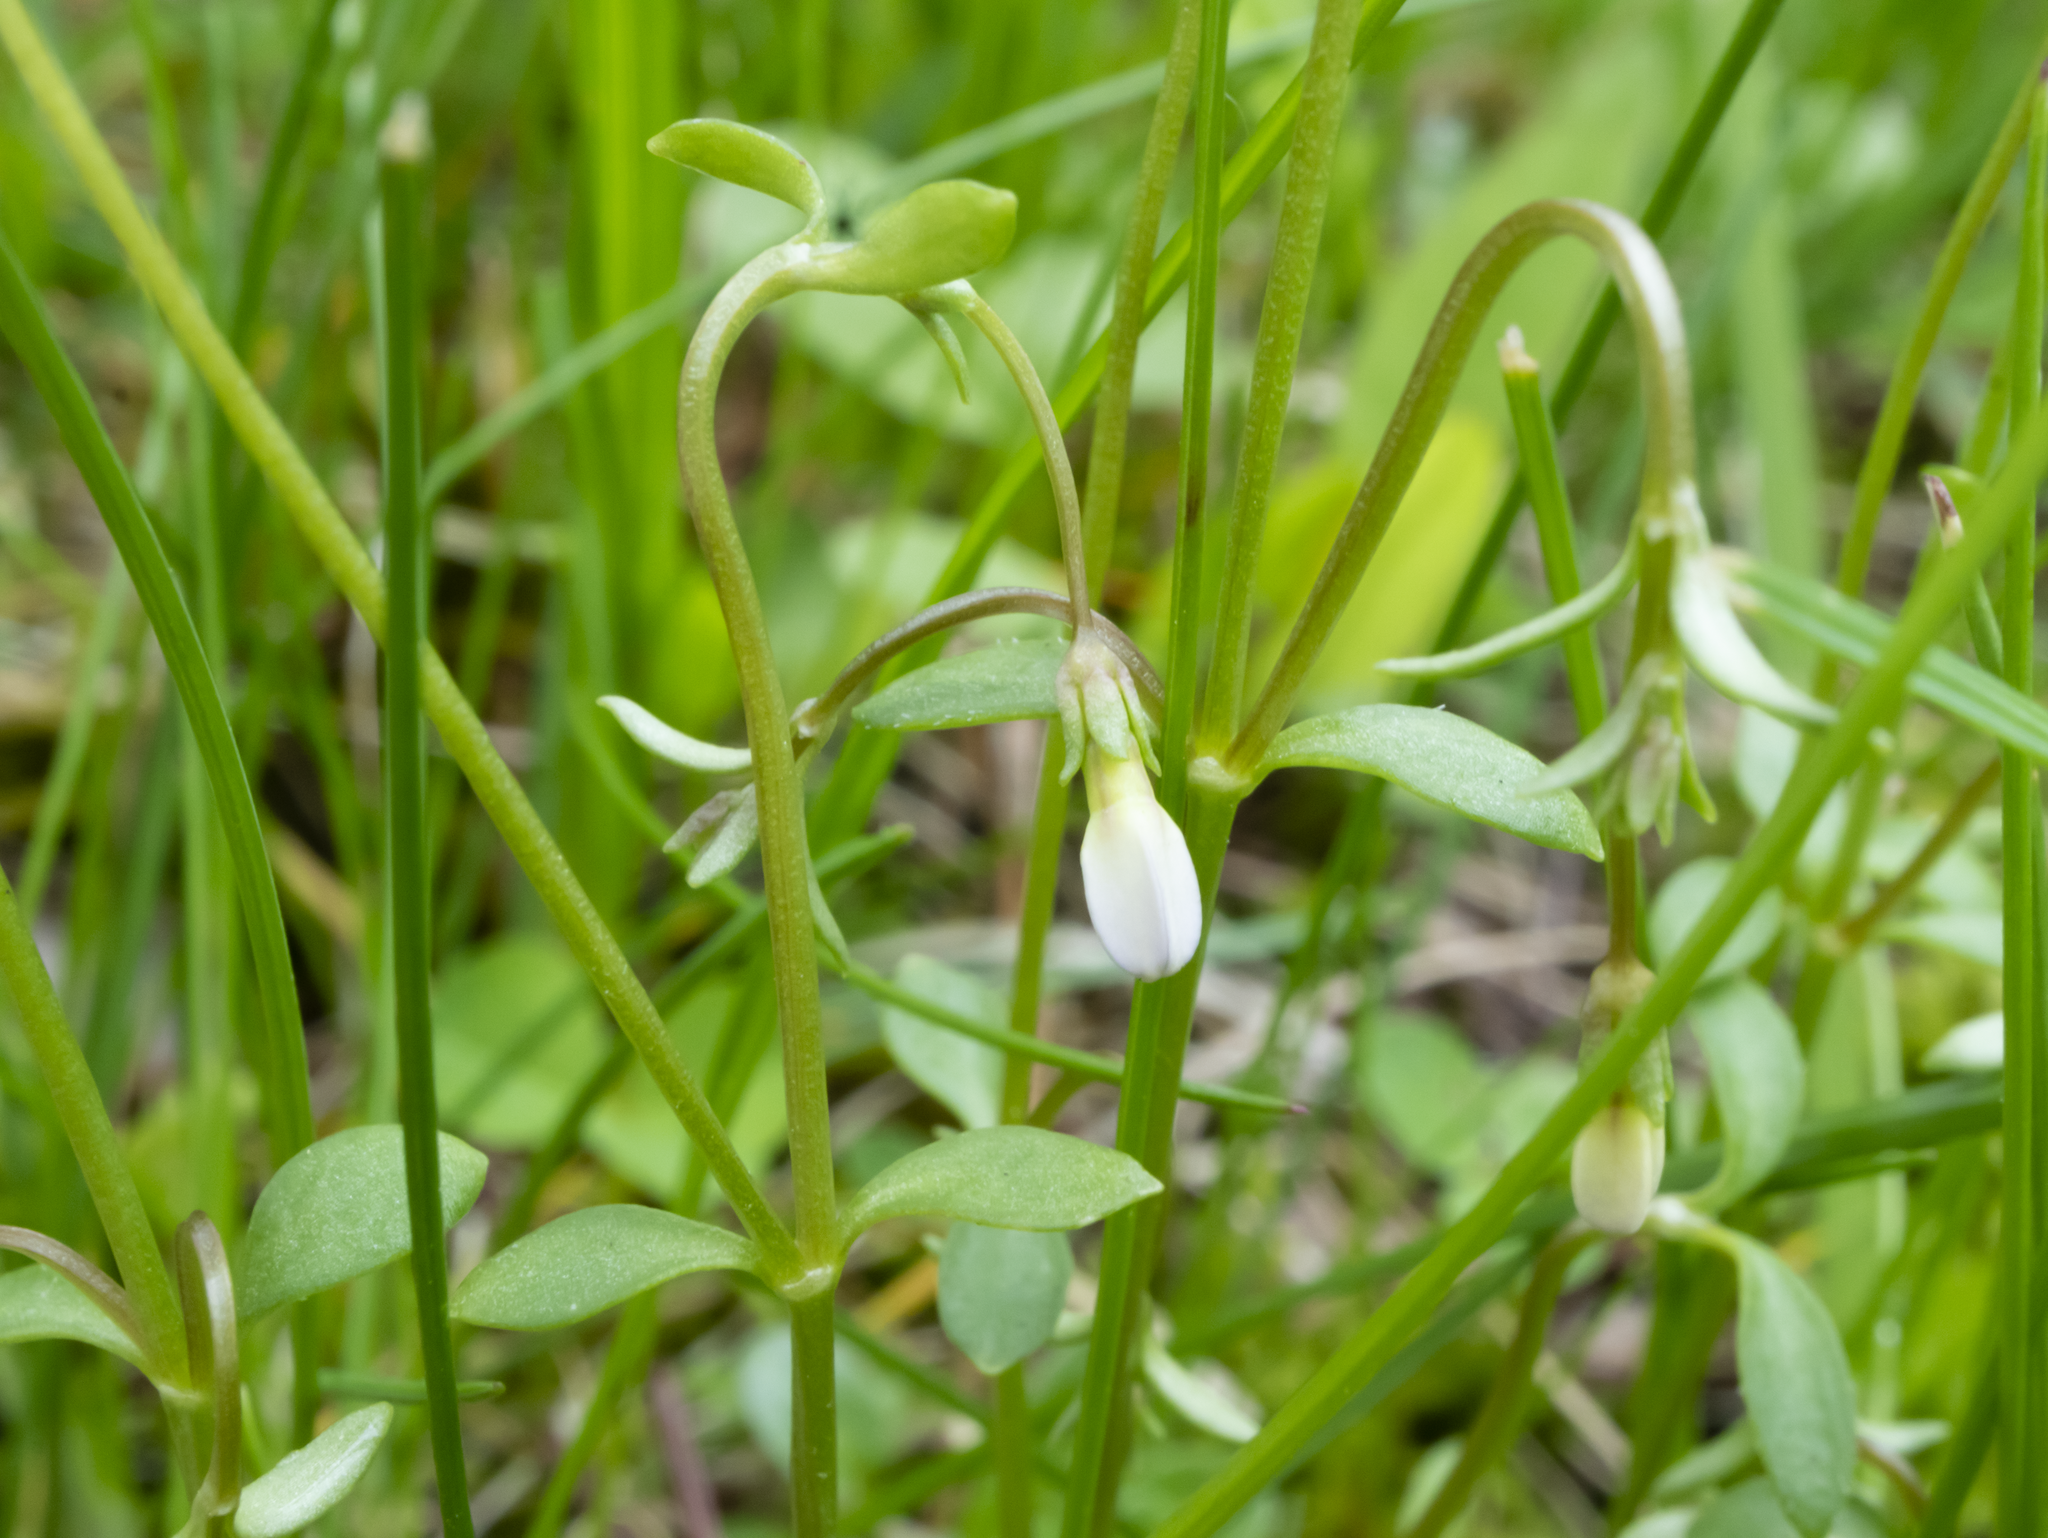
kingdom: Plantae
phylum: Tracheophyta
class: Magnoliopsida
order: Gentianales
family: Rubiaceae
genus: Houstonia
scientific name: Houstonia caerulea
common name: Bluets
